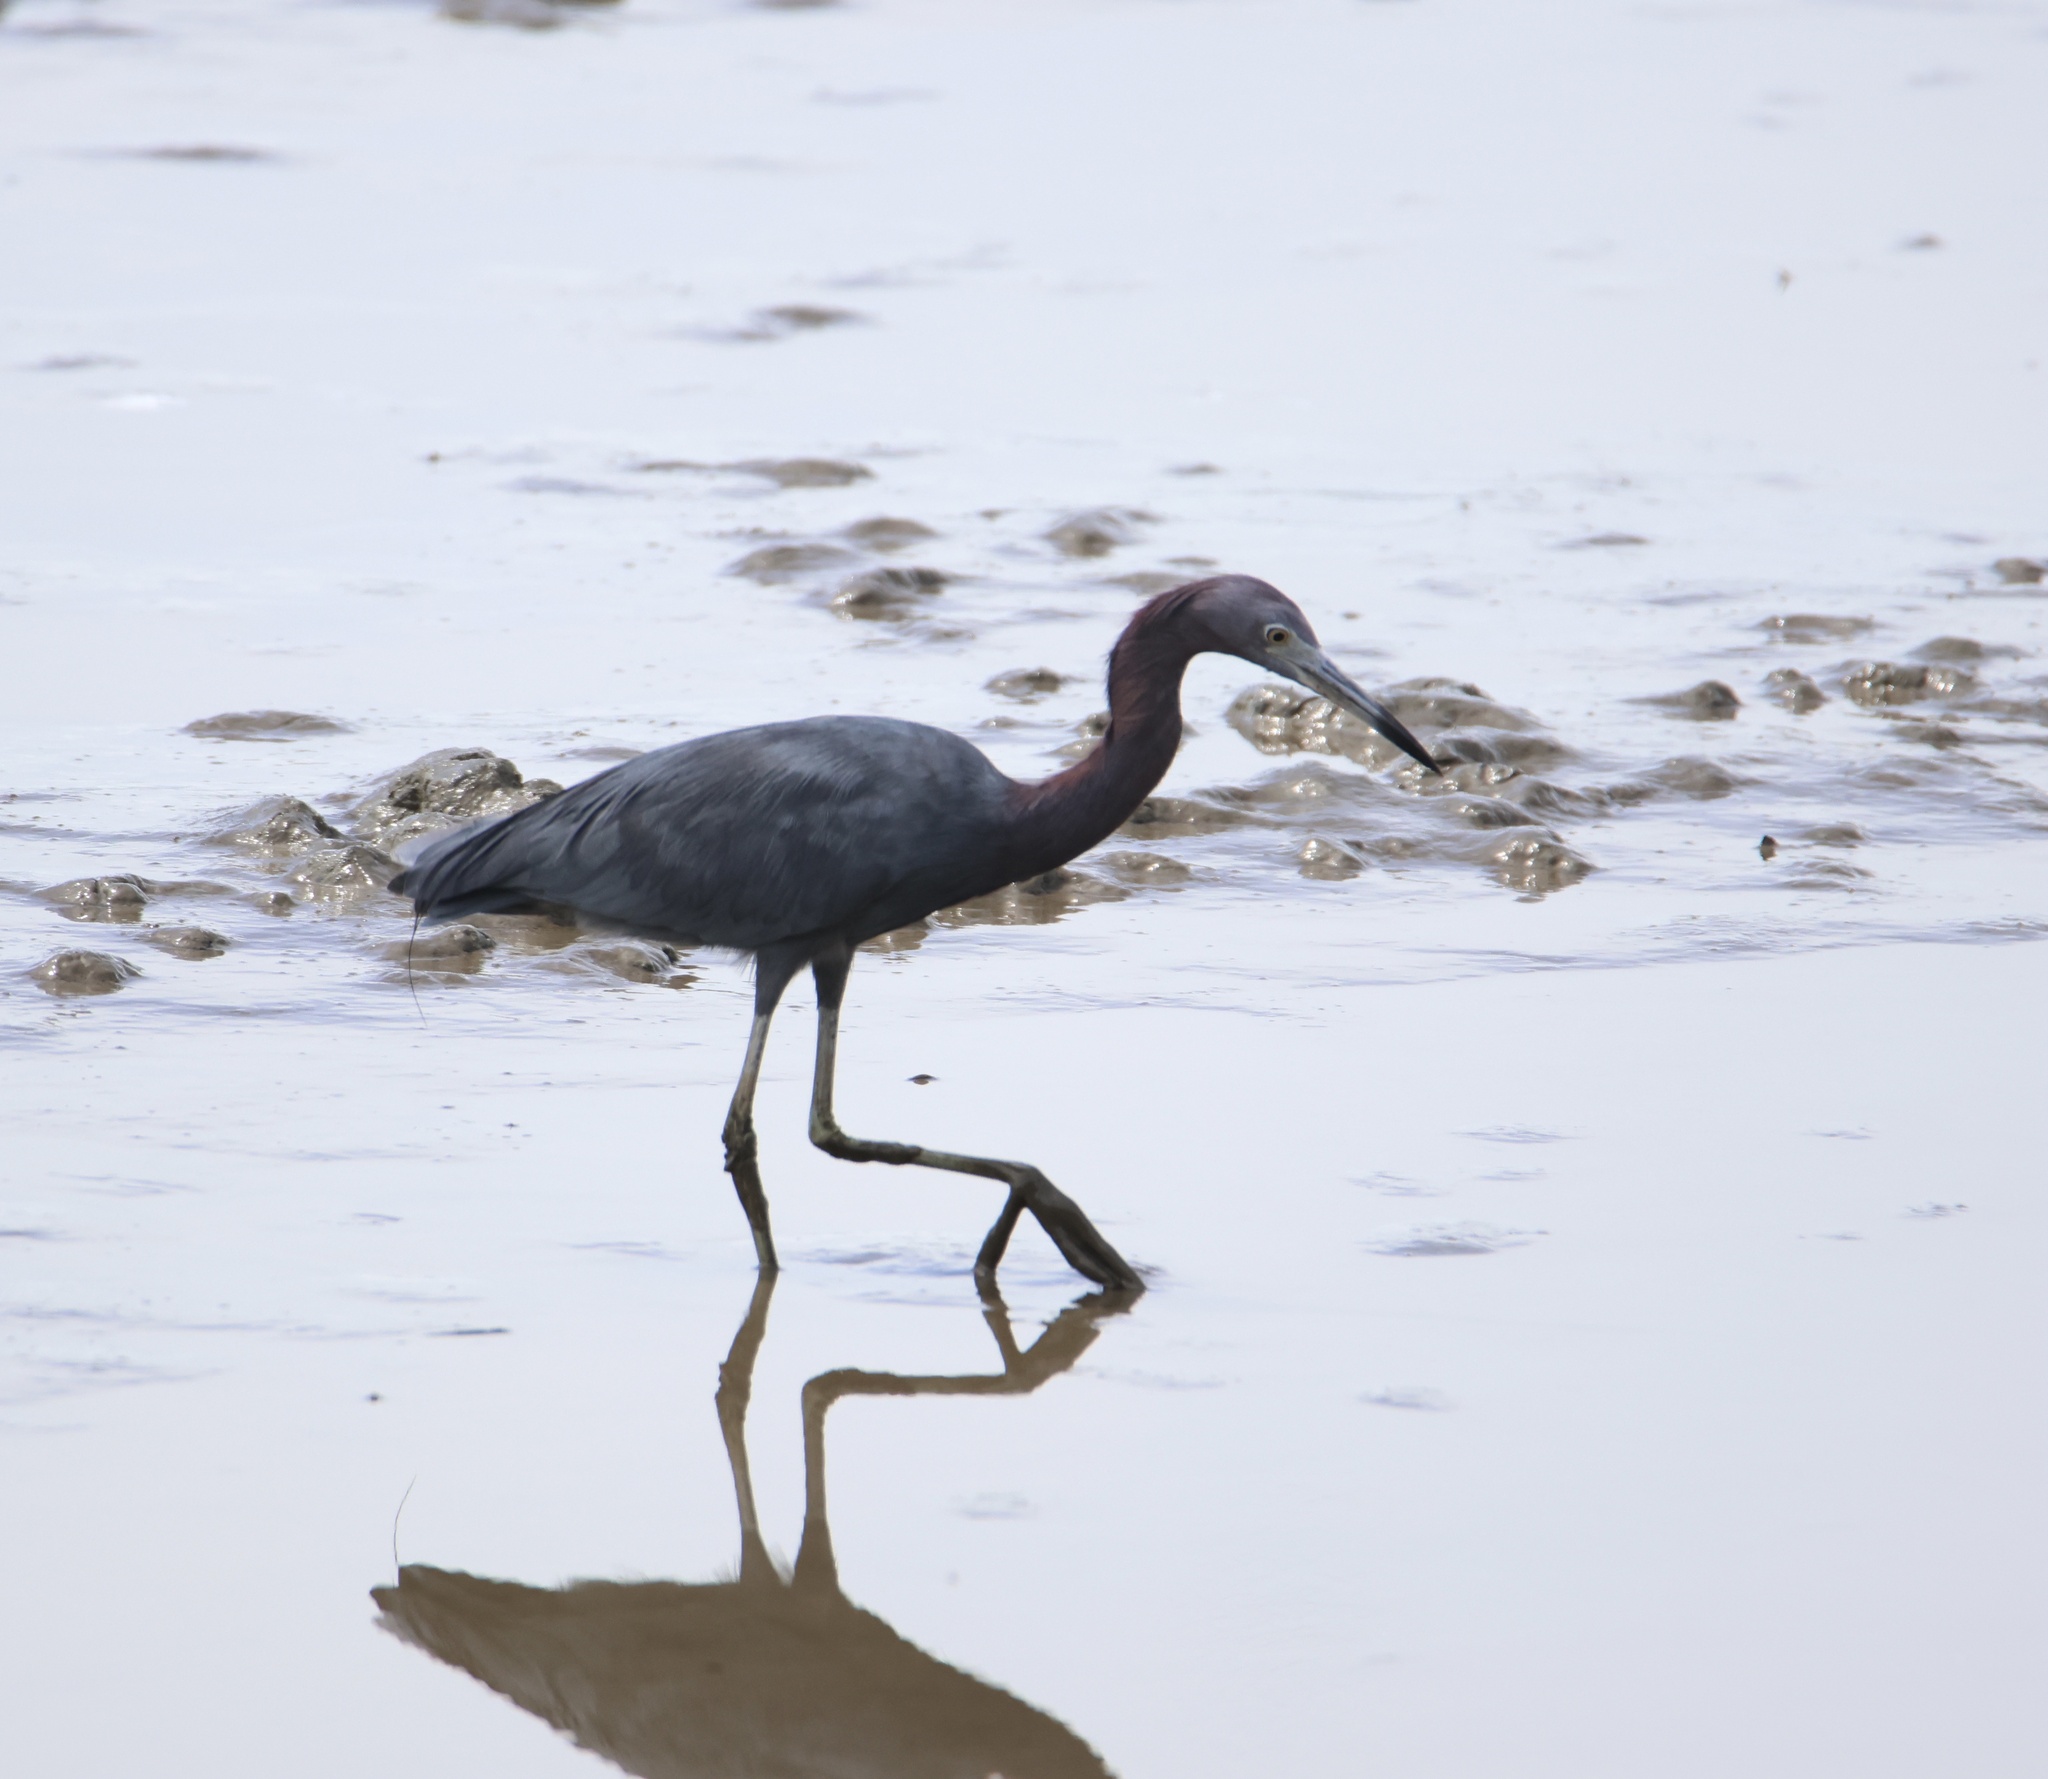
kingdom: Animalia
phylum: Chordata
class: Aves
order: Pelecaniformes
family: Ardeidae
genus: Egretta
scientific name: Egretta caerulea
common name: Little blue heron
